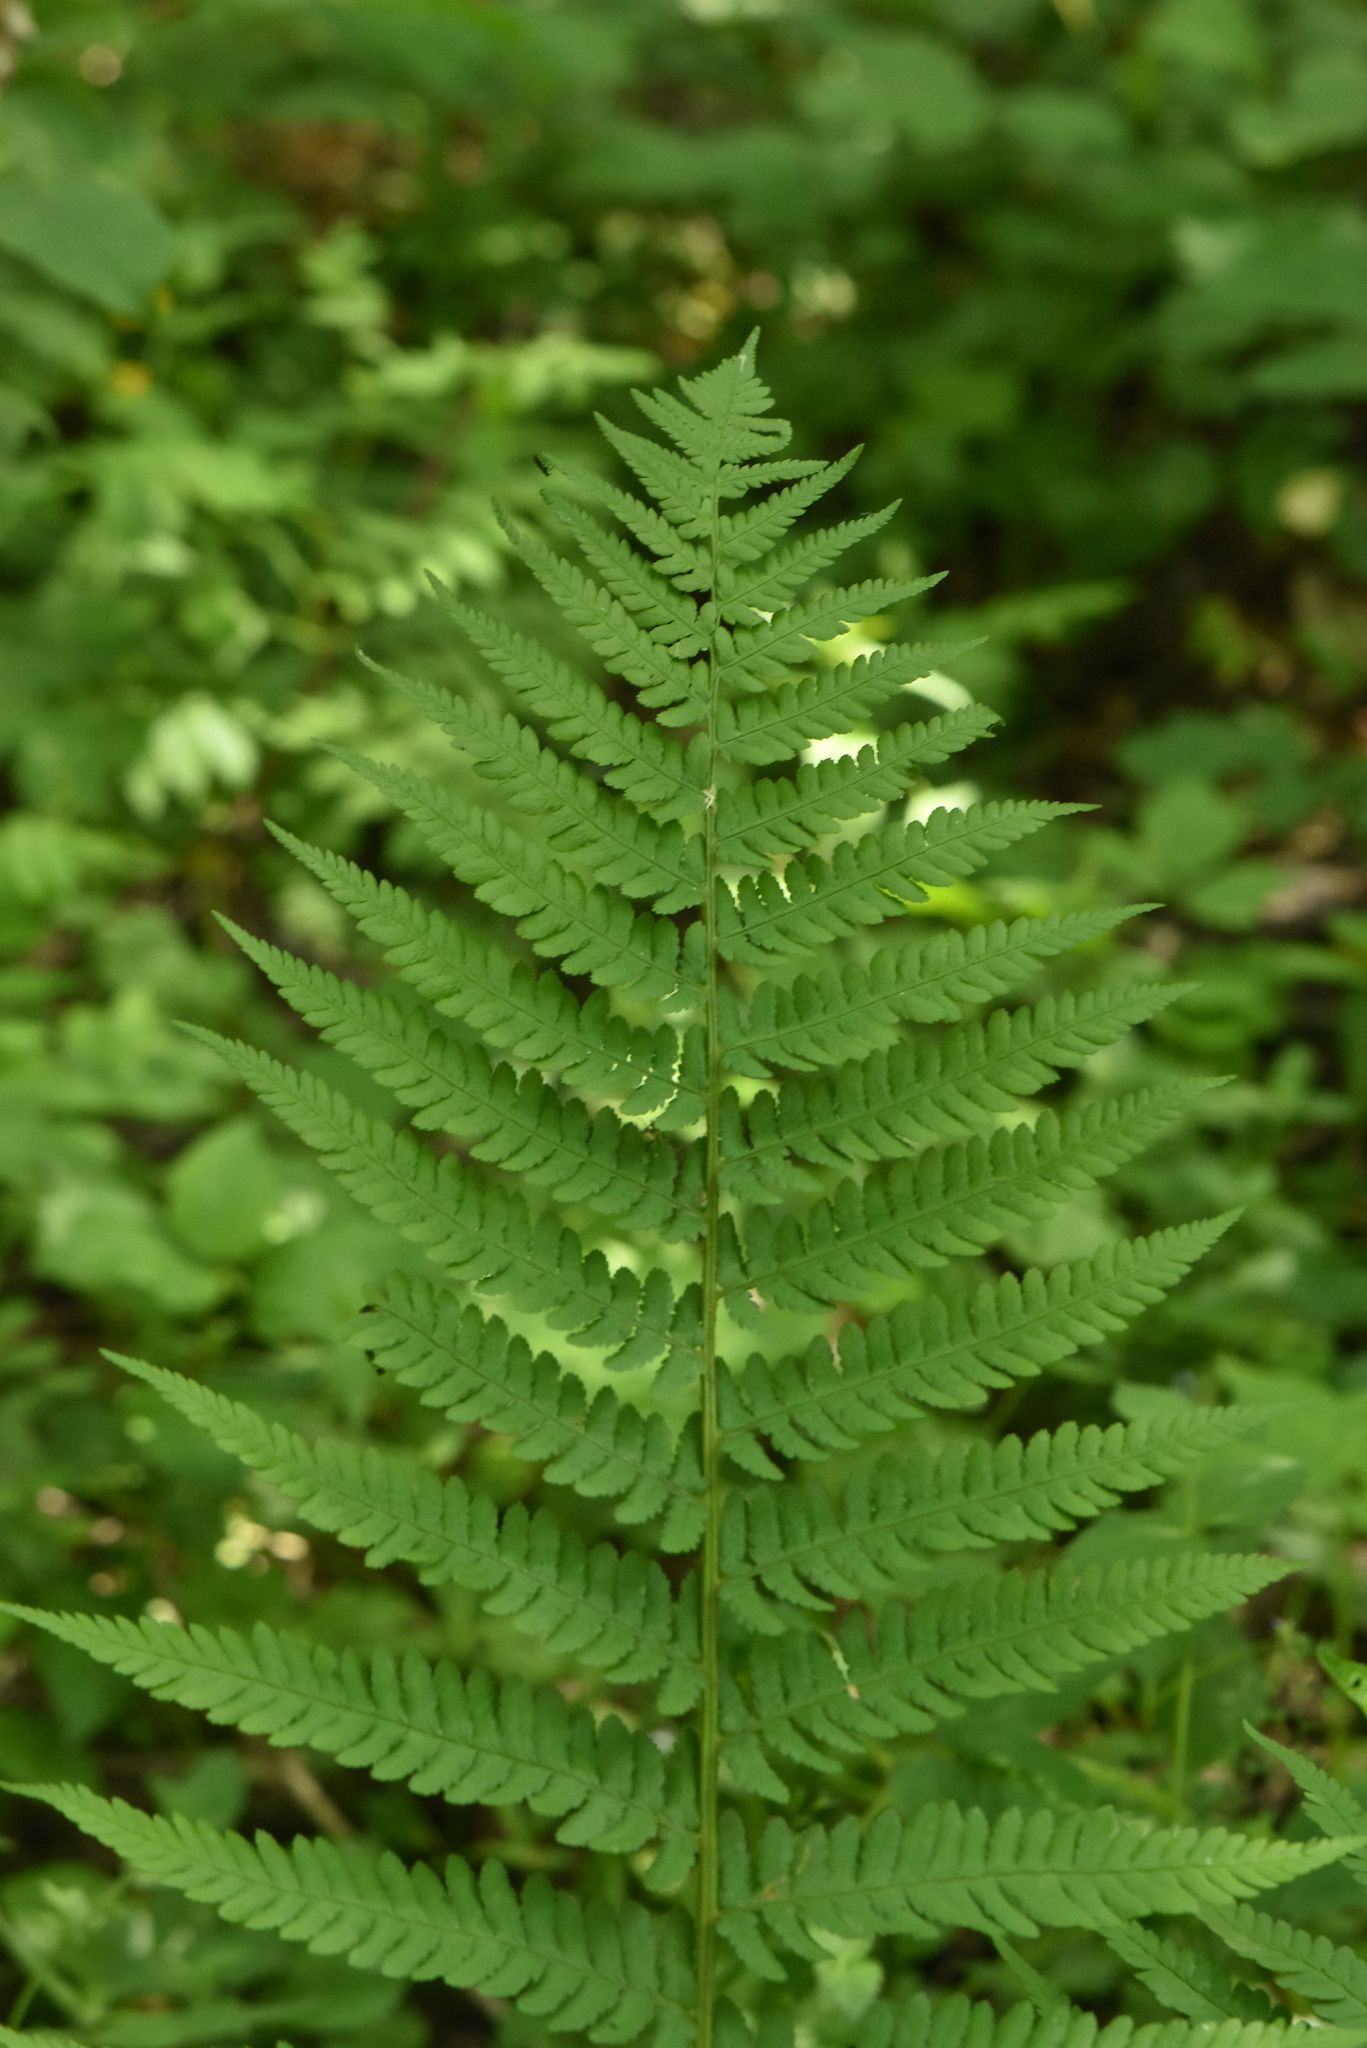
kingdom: Plantae
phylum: Tracheophyta
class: Polypodiopsida
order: Polypodiales
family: Dryopteridaceae
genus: Dryopteris
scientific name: Dryopteris filix-mas
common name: Male fern
